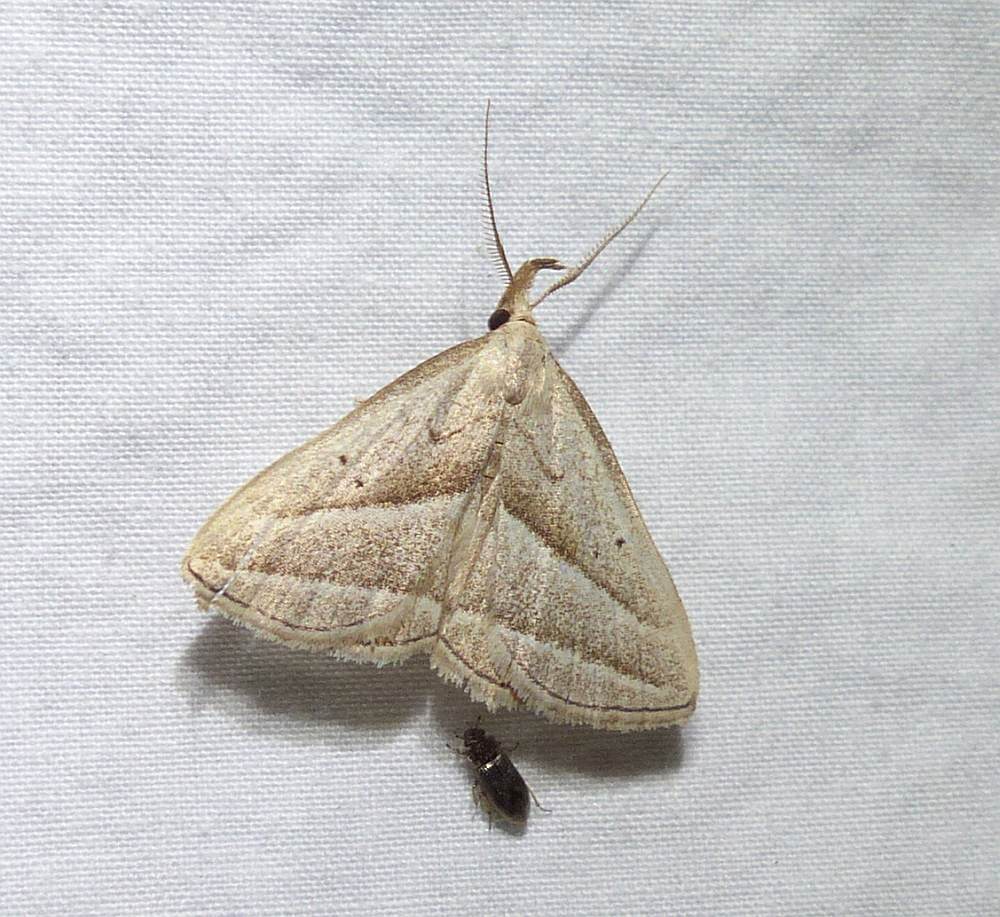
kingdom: Animalia
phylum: Arthropoda
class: Insecta
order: Lepidoptera
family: Erebidae
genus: Macrochilo
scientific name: Macrochilo absorptalis
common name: Slant-lined owlet
